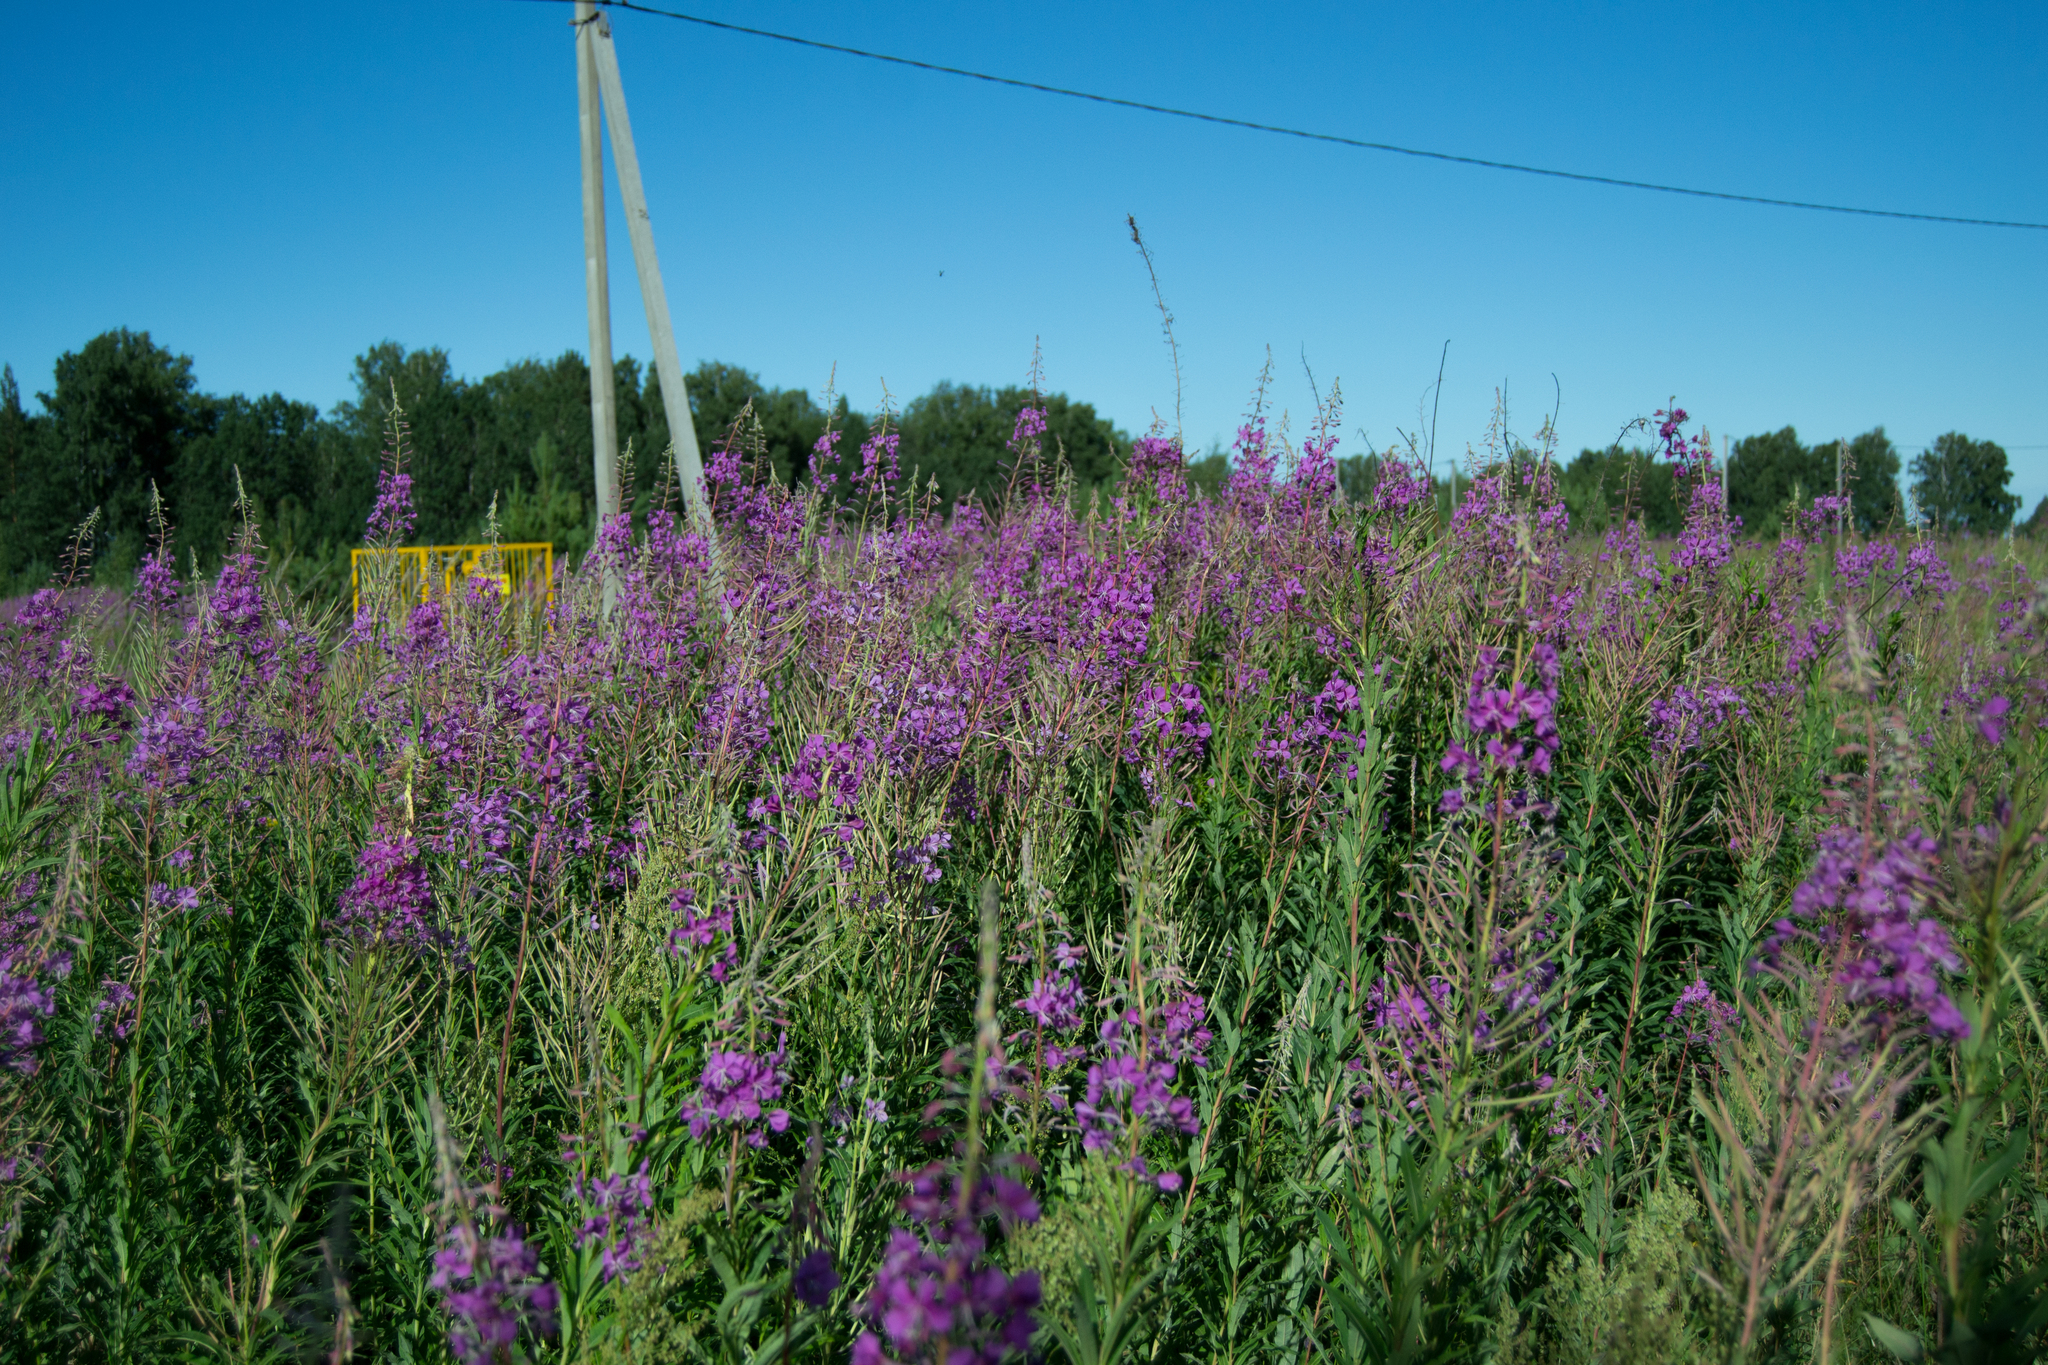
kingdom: Plantae
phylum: Tracheophyta
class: Magnoliopsida
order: Myrtales
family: Onagraceae
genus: Chamaenerion
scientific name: Chamaenerion angustifolium
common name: Fireweed
